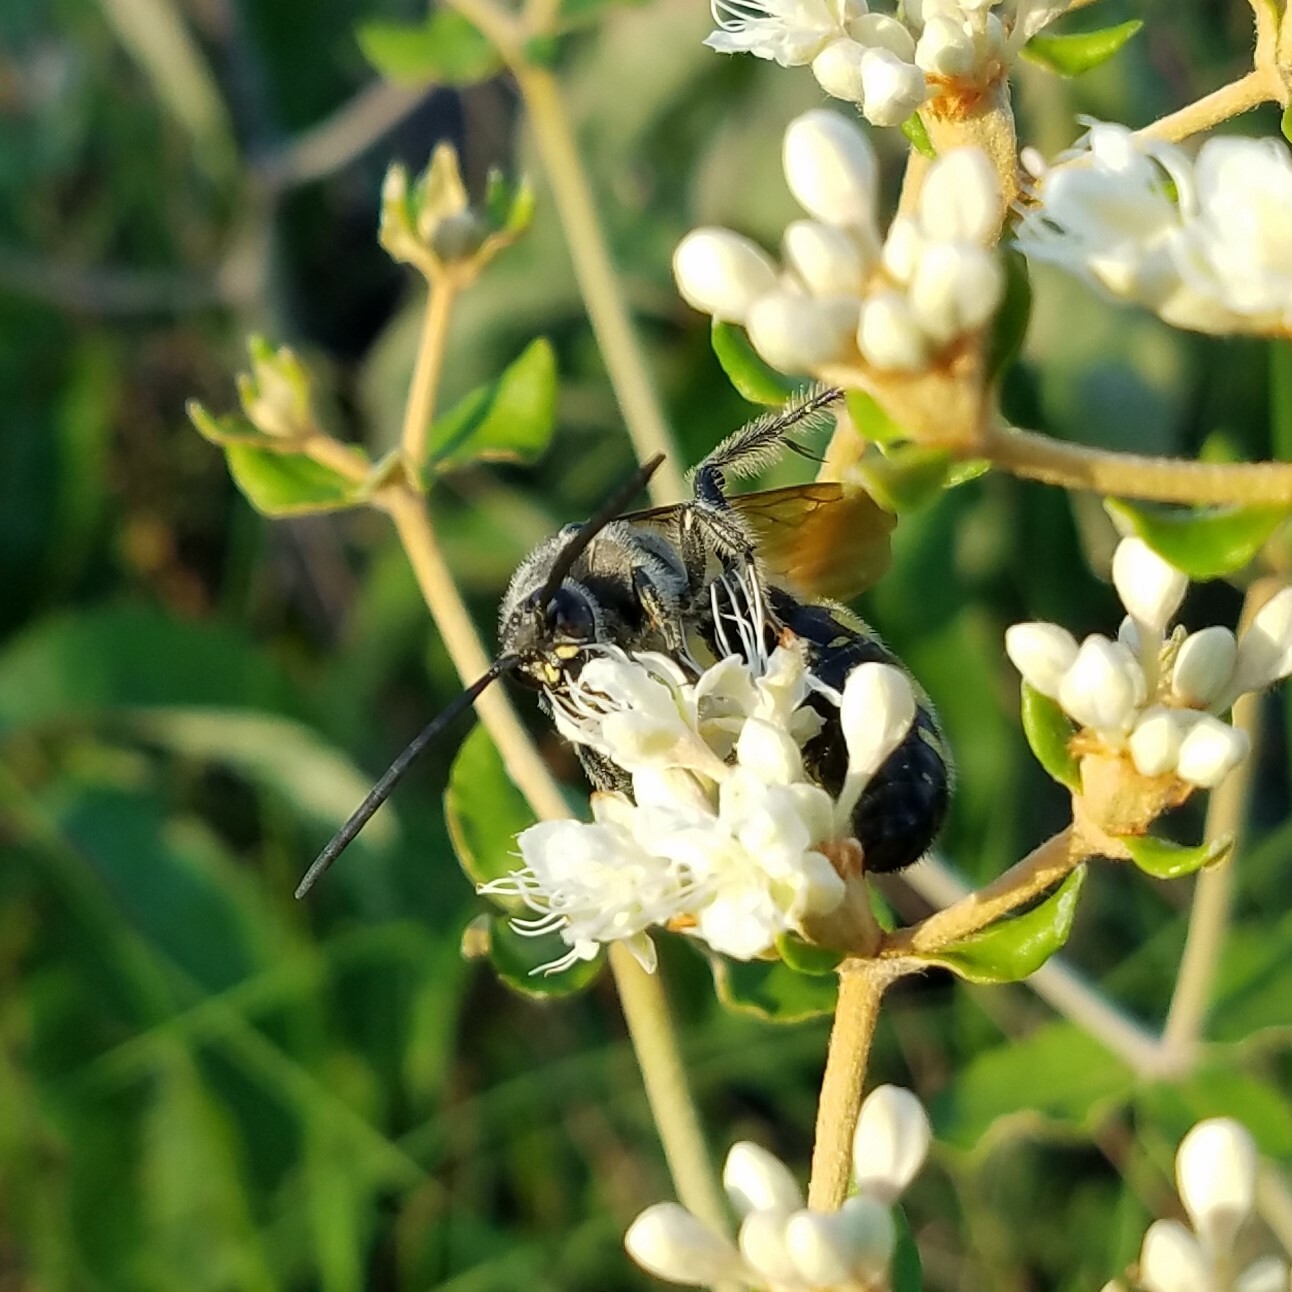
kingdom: Animalia
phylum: Arthropoda
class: Insecta
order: Hymenoptera
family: Scoliidae
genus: Pygodasis
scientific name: Pygodasis
